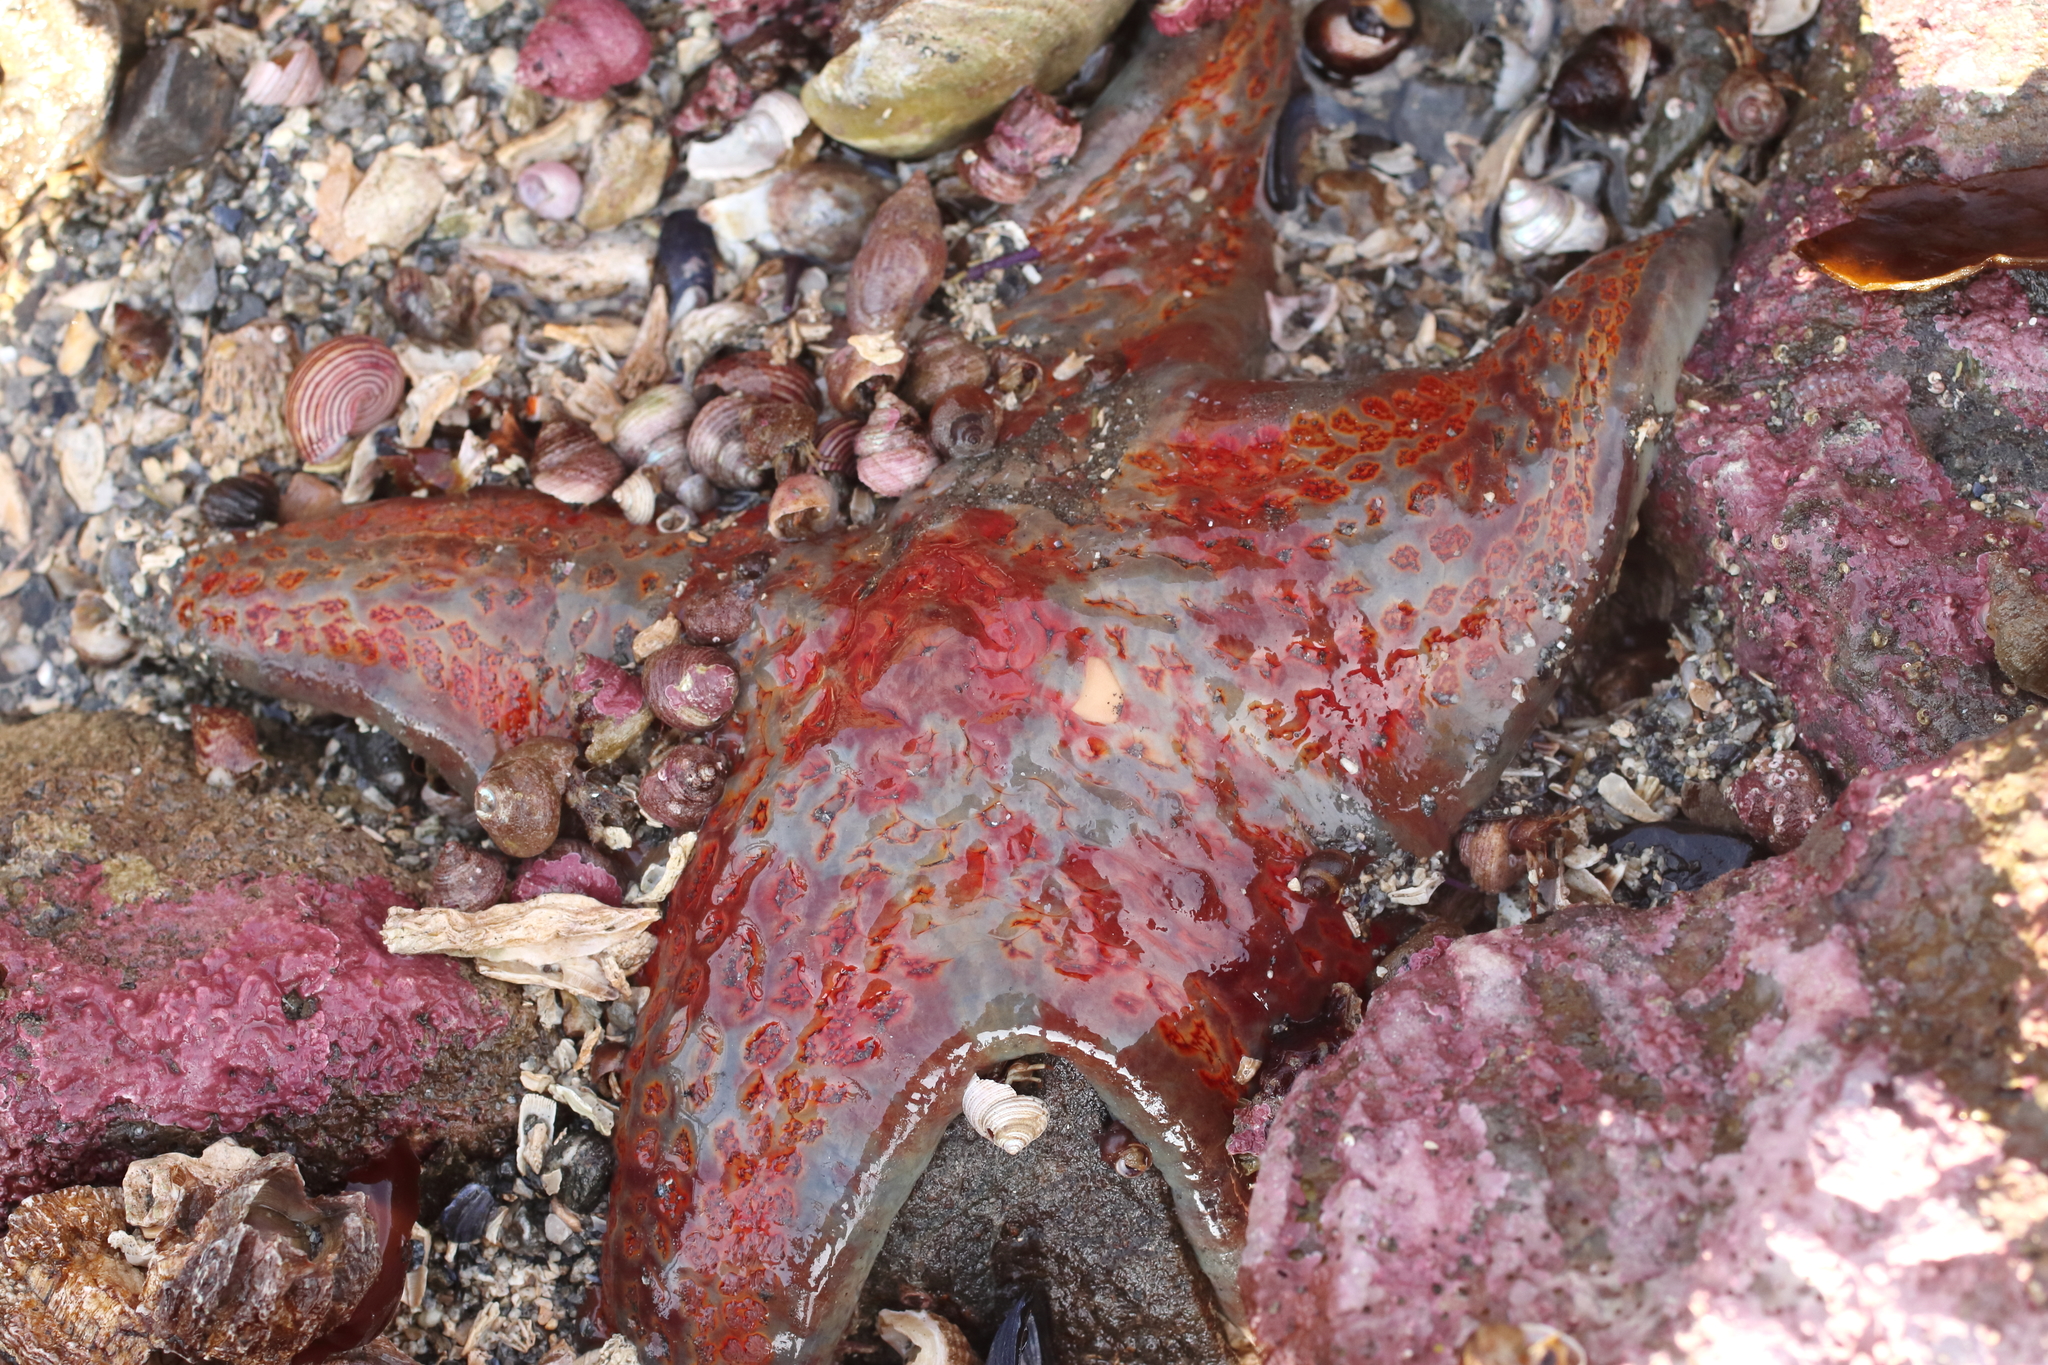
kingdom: Animalia
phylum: Echinodermata
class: Asteroidea
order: Valvatida
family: Asteropseidae
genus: Dermasterias
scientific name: Dermasterias imbricata
